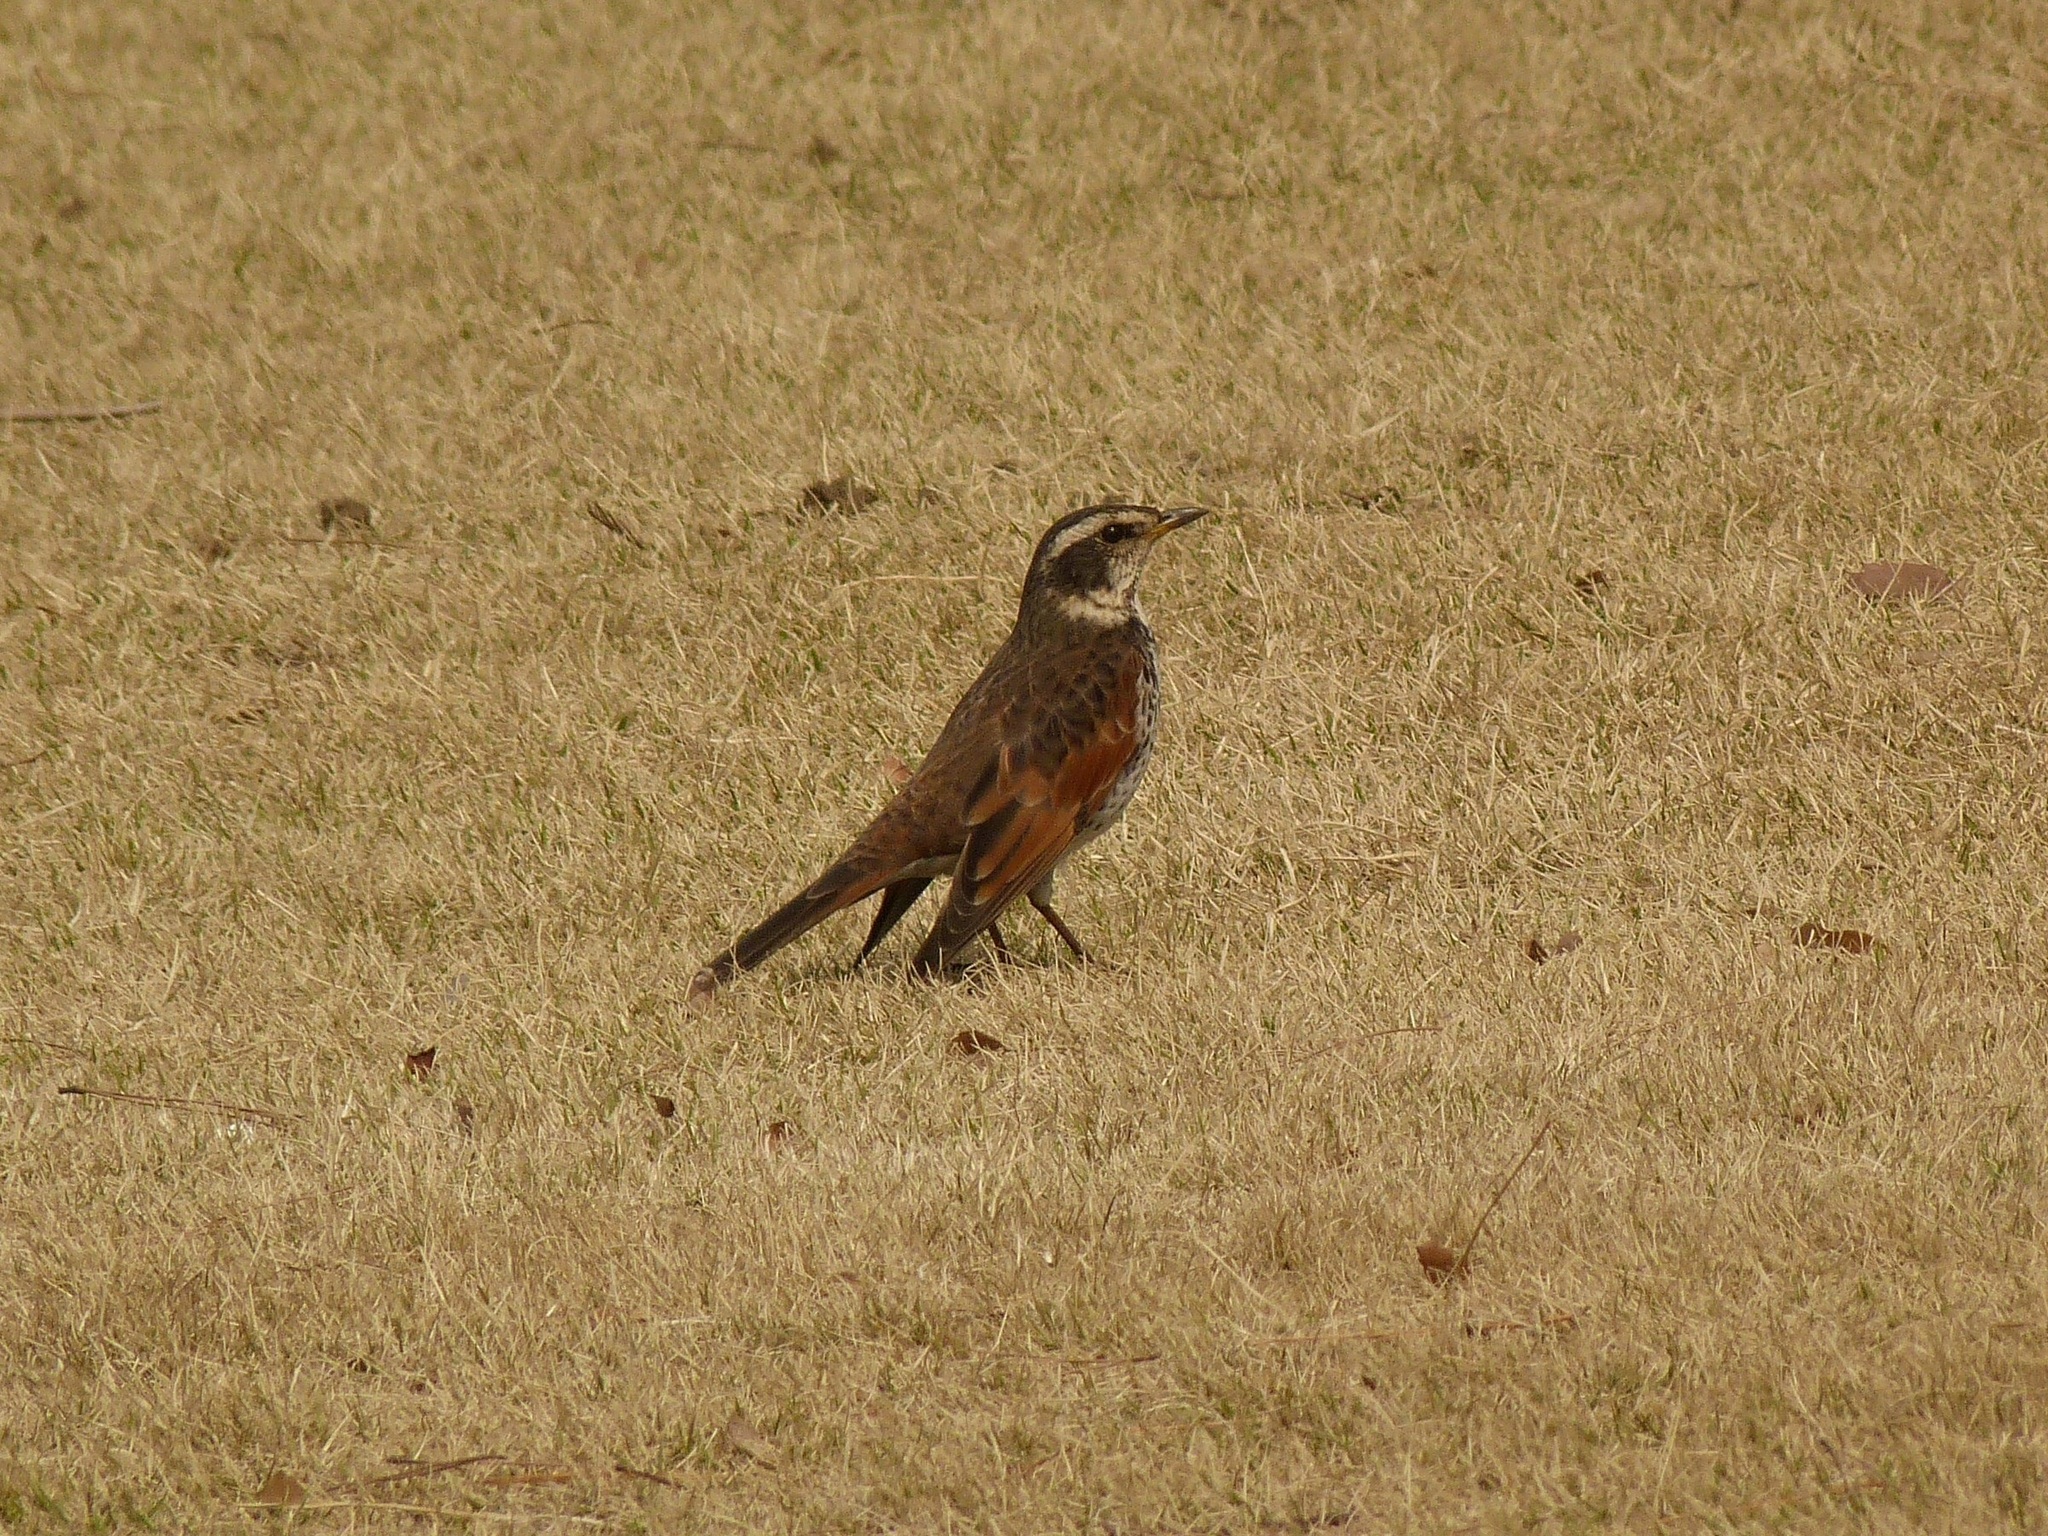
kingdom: Animalia
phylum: Chordata
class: Aves
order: Passeriformes
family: Turdidae
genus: Turdus
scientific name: Turdus eunomus
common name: Dusky thrush
